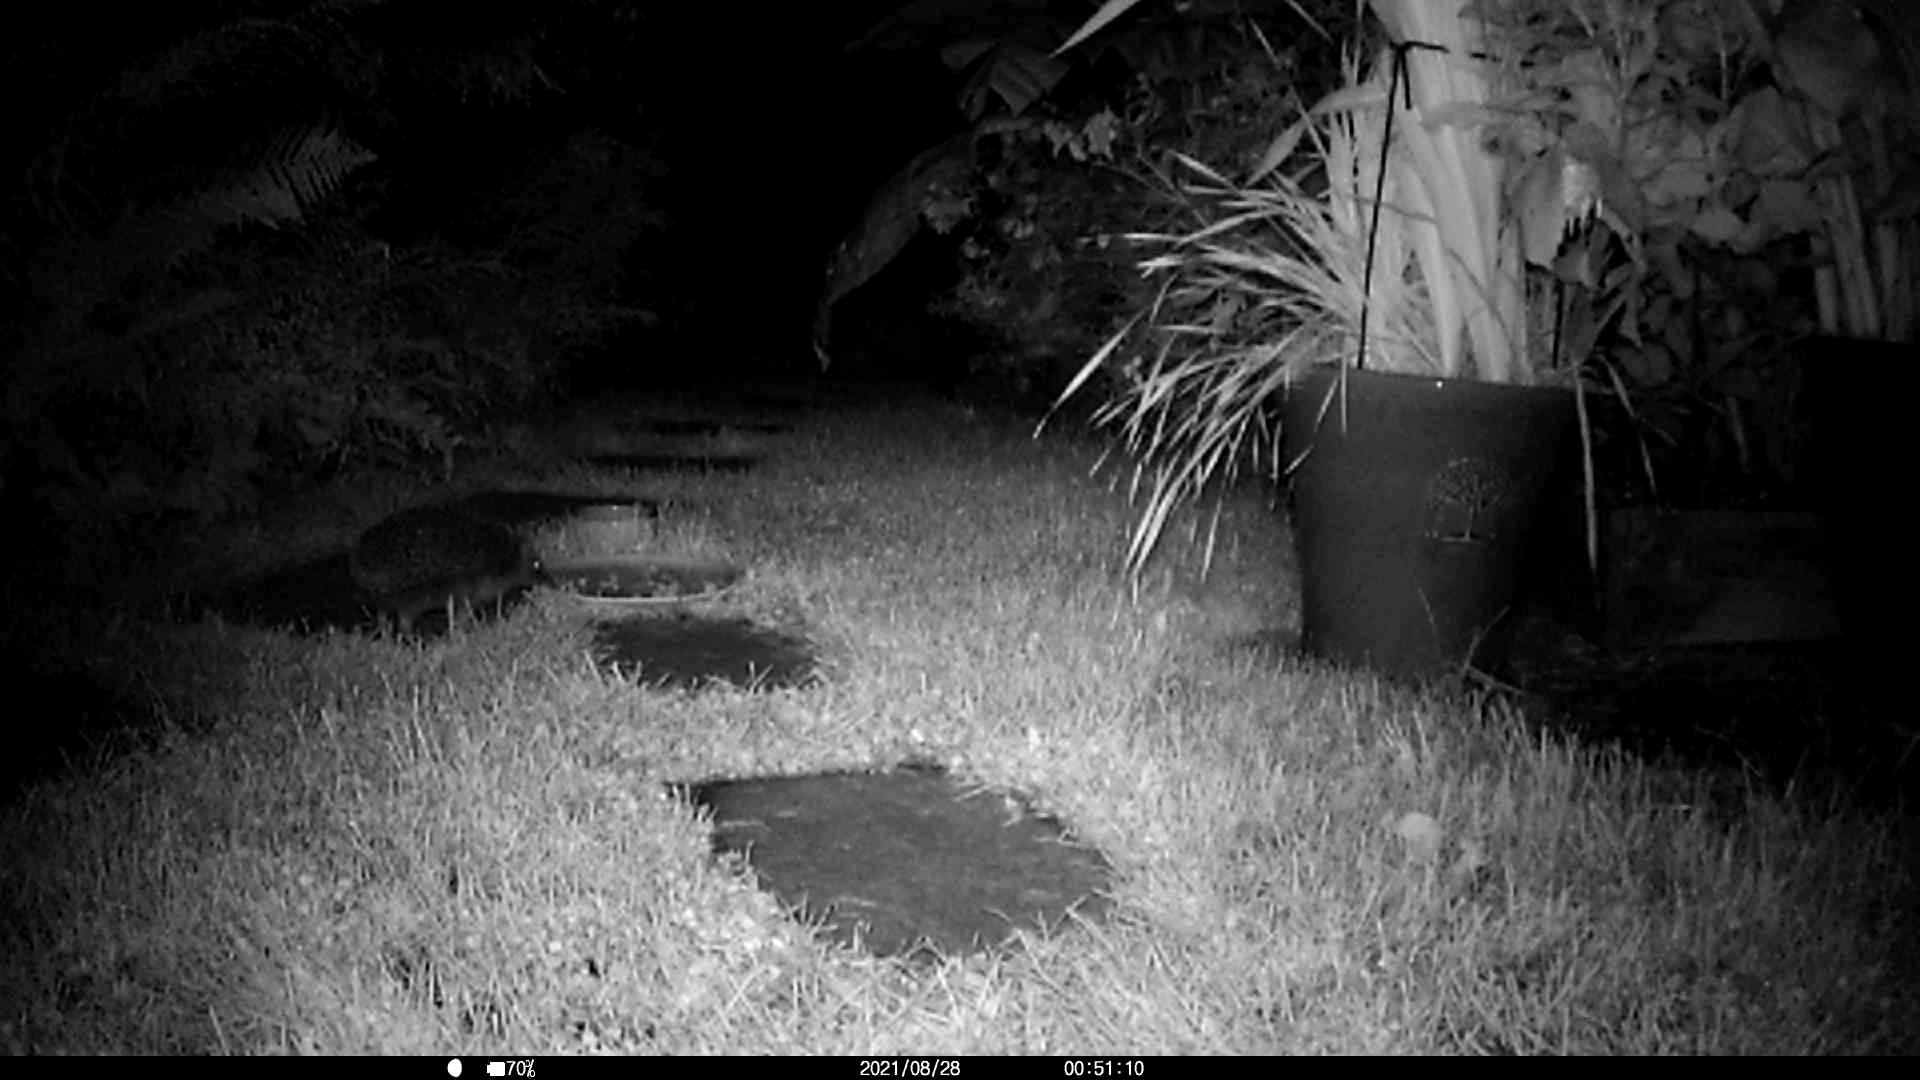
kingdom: Animalia
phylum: Chordata
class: Mammalia
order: Erinaceomorpha
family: Erinaceidae
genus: Erinaceus
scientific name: Erinaceus europaeus
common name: West european hedgehog
